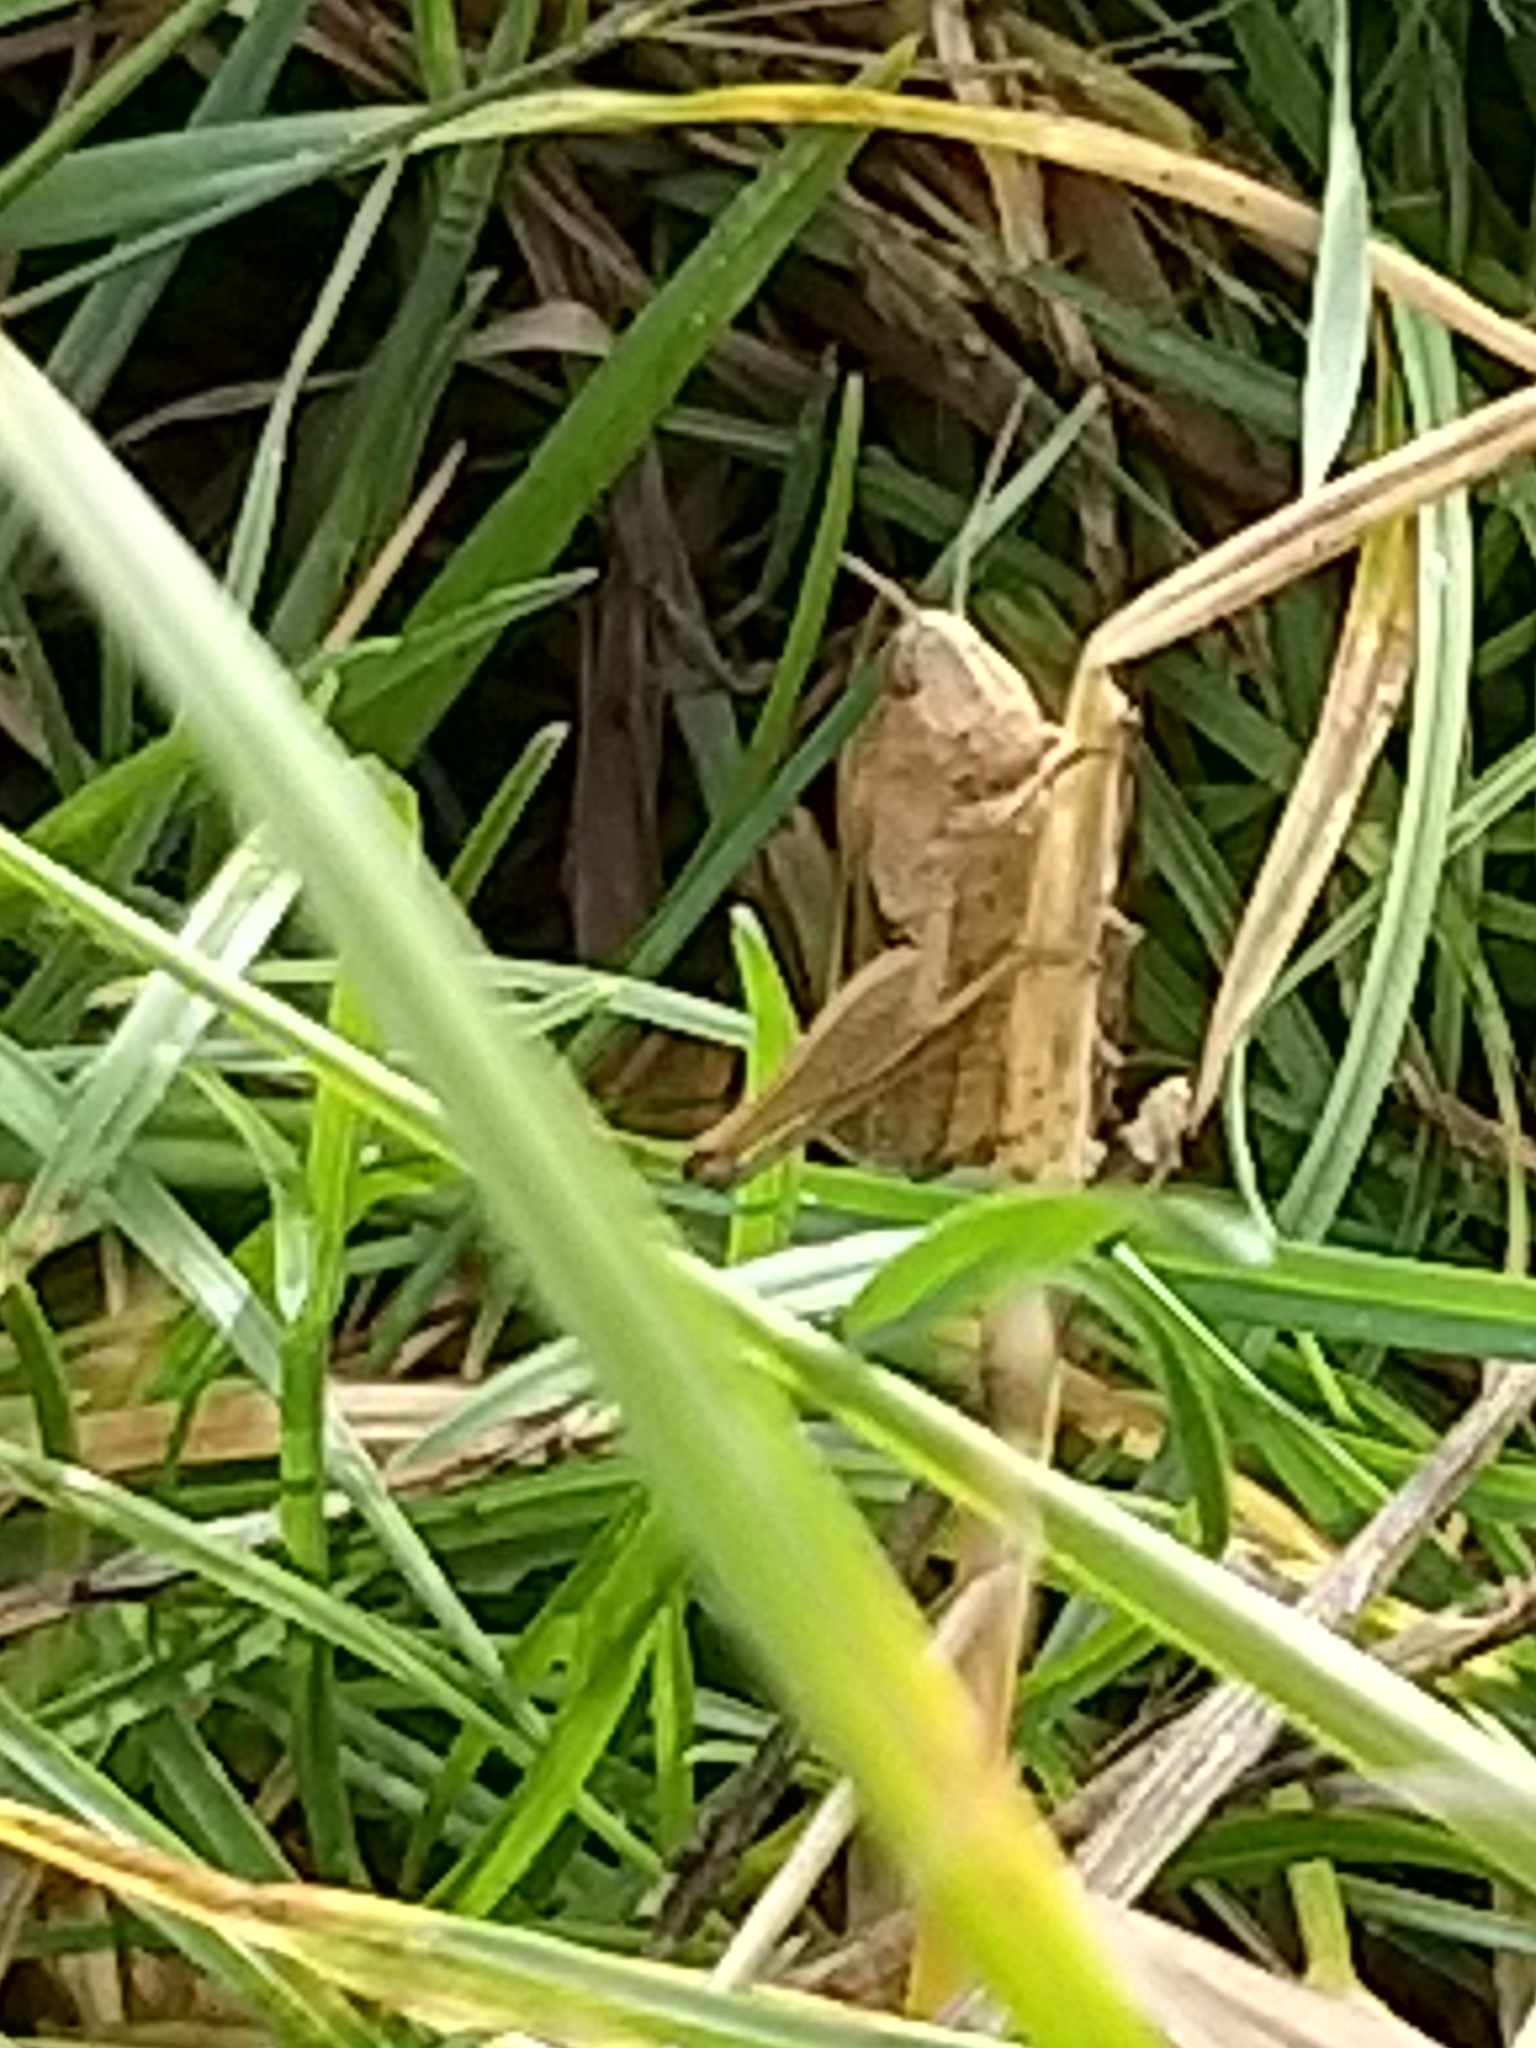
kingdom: Animalia
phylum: Arthropoda
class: Insecta
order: Orthoptera
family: Acrididae
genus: Omocestus
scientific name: Omocestus viridulus
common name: Common green grasshopper
